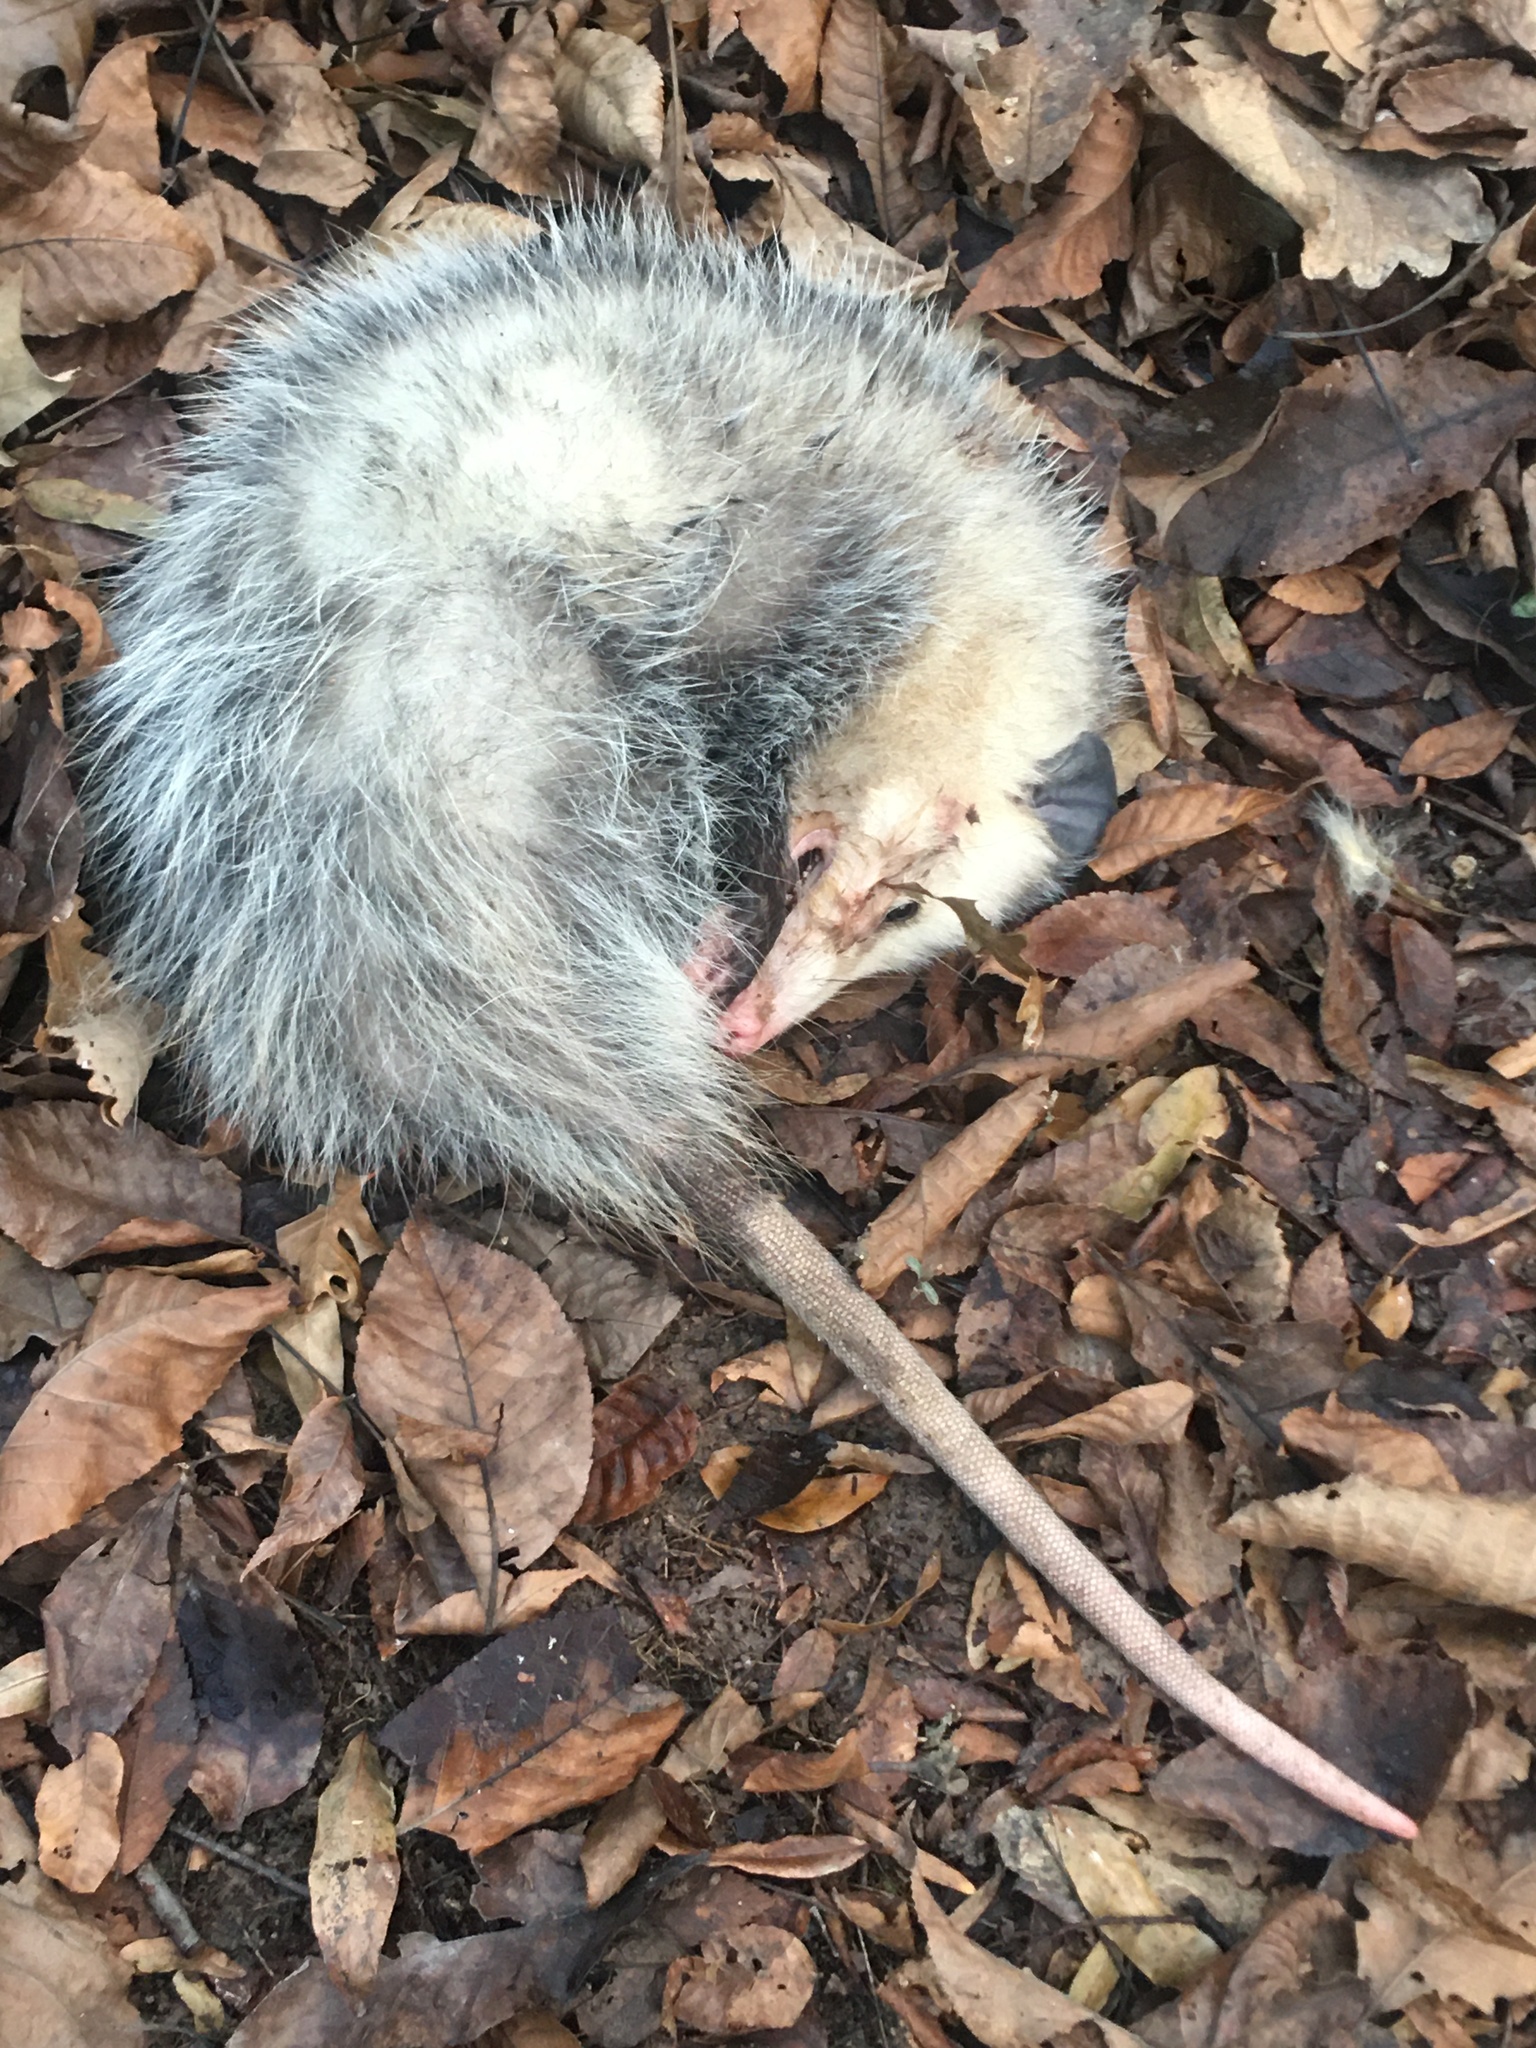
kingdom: Animalia
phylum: Chordata
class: Mammalia
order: Didelphimorphia
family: Didelphidae
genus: Didelphis
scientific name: Didelphis virginiana
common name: Virginia opossum
